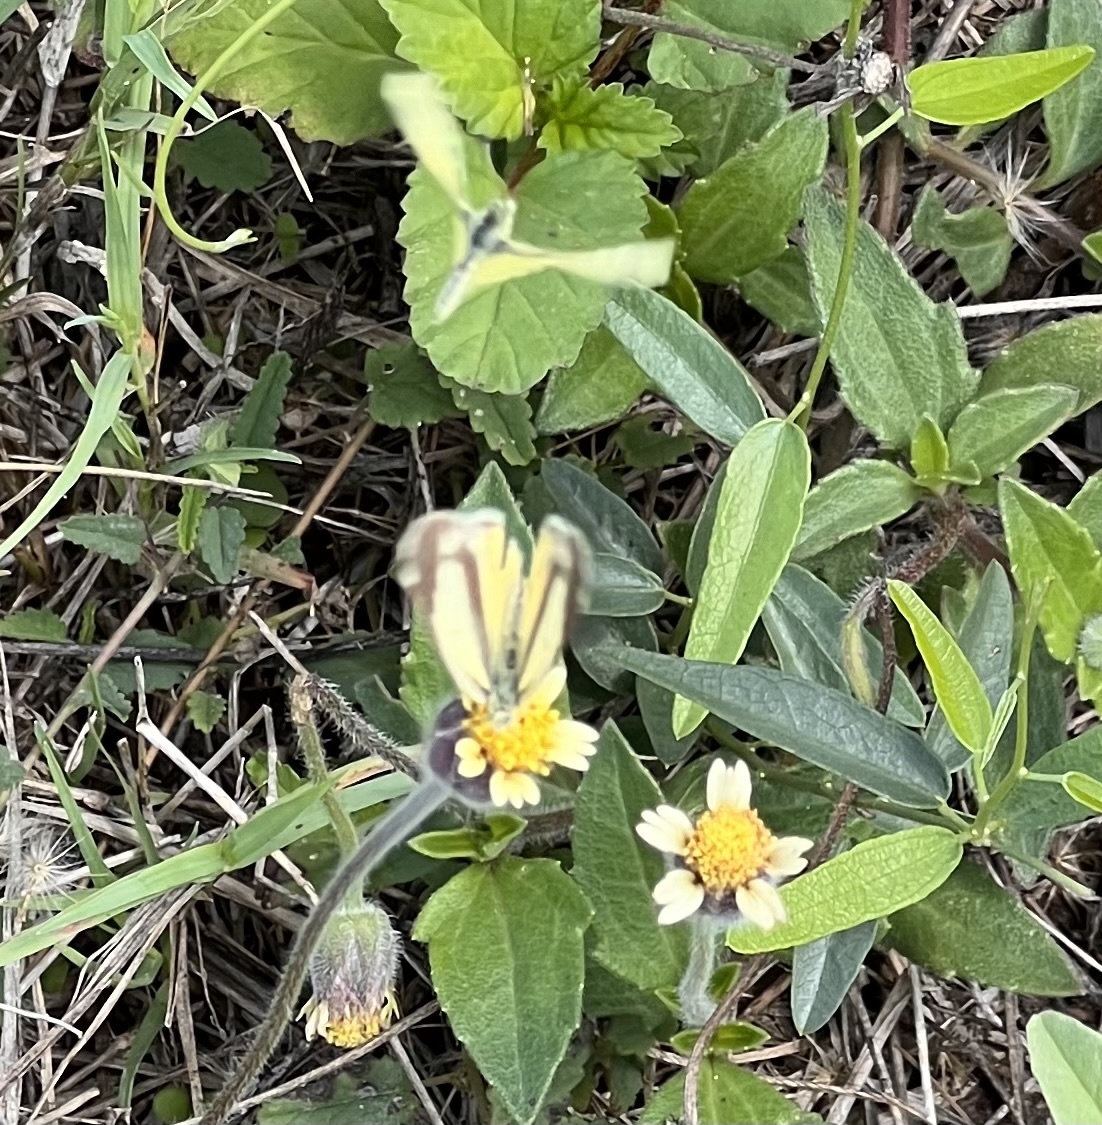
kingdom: Animalia
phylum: Arthropoda
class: Insecta
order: Lepidoptera
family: Pieridae
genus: Nathalis
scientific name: Nathalis iole
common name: Dainty sulphur
